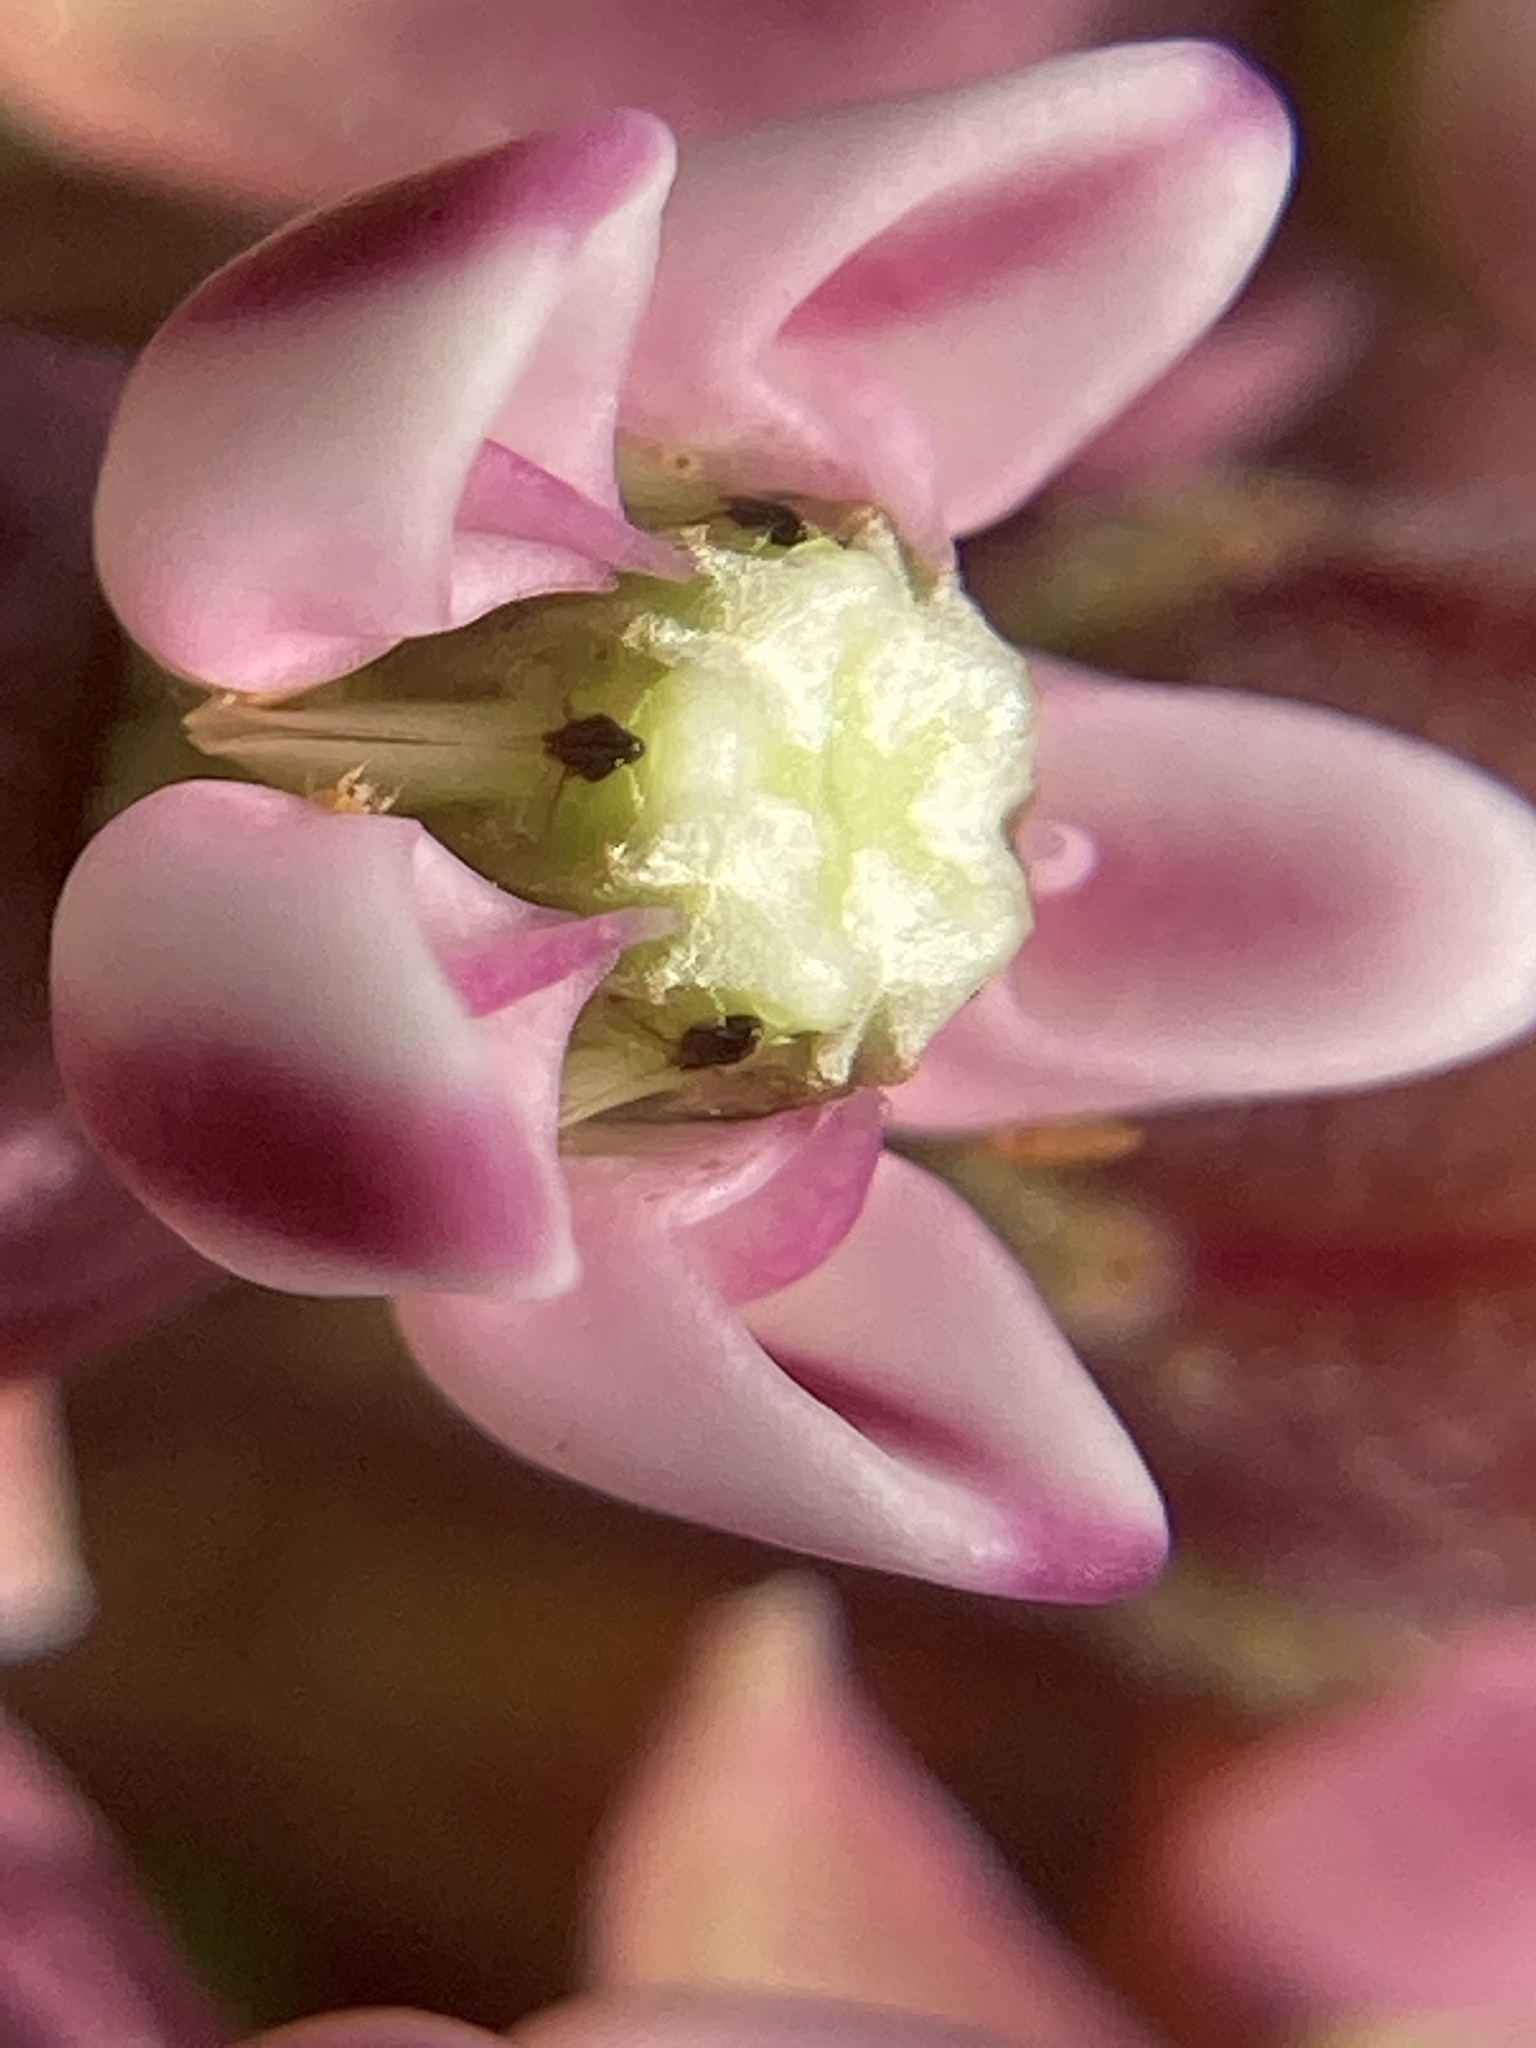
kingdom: Plantae
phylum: Tracheophyta
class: Magnoliopsida
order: Gentianales
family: Apocynaceae
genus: Asclepias
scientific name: Asclepias syriaca
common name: Common milkweed
